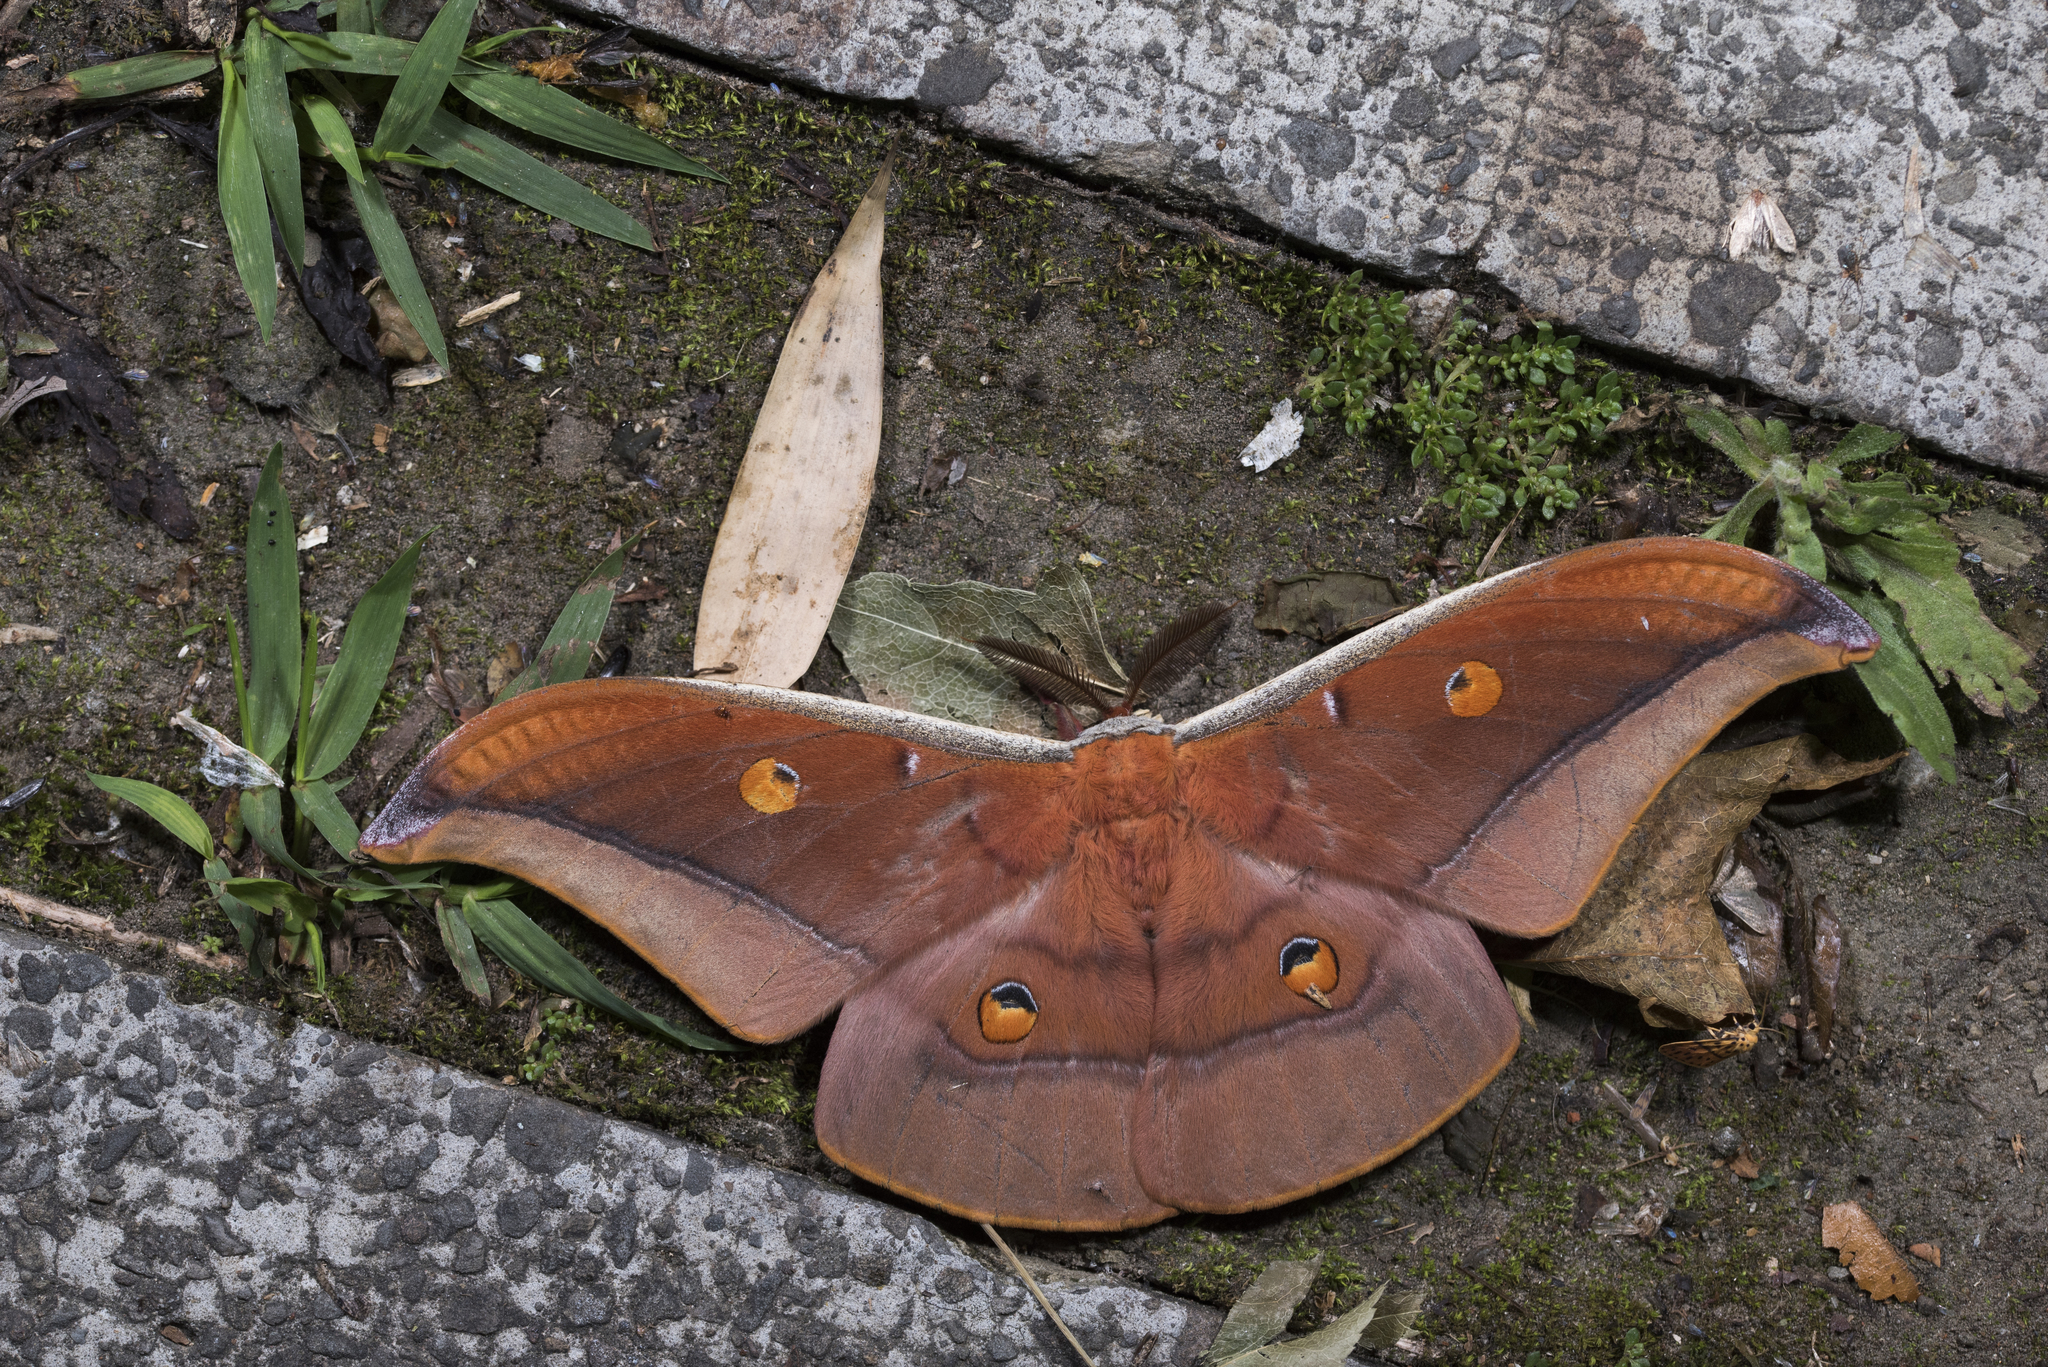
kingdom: Animalia
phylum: Arthropoda
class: Insecta
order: Lepidoptera
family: Saturniidae
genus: Antheraea
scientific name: Antheraea formosana
